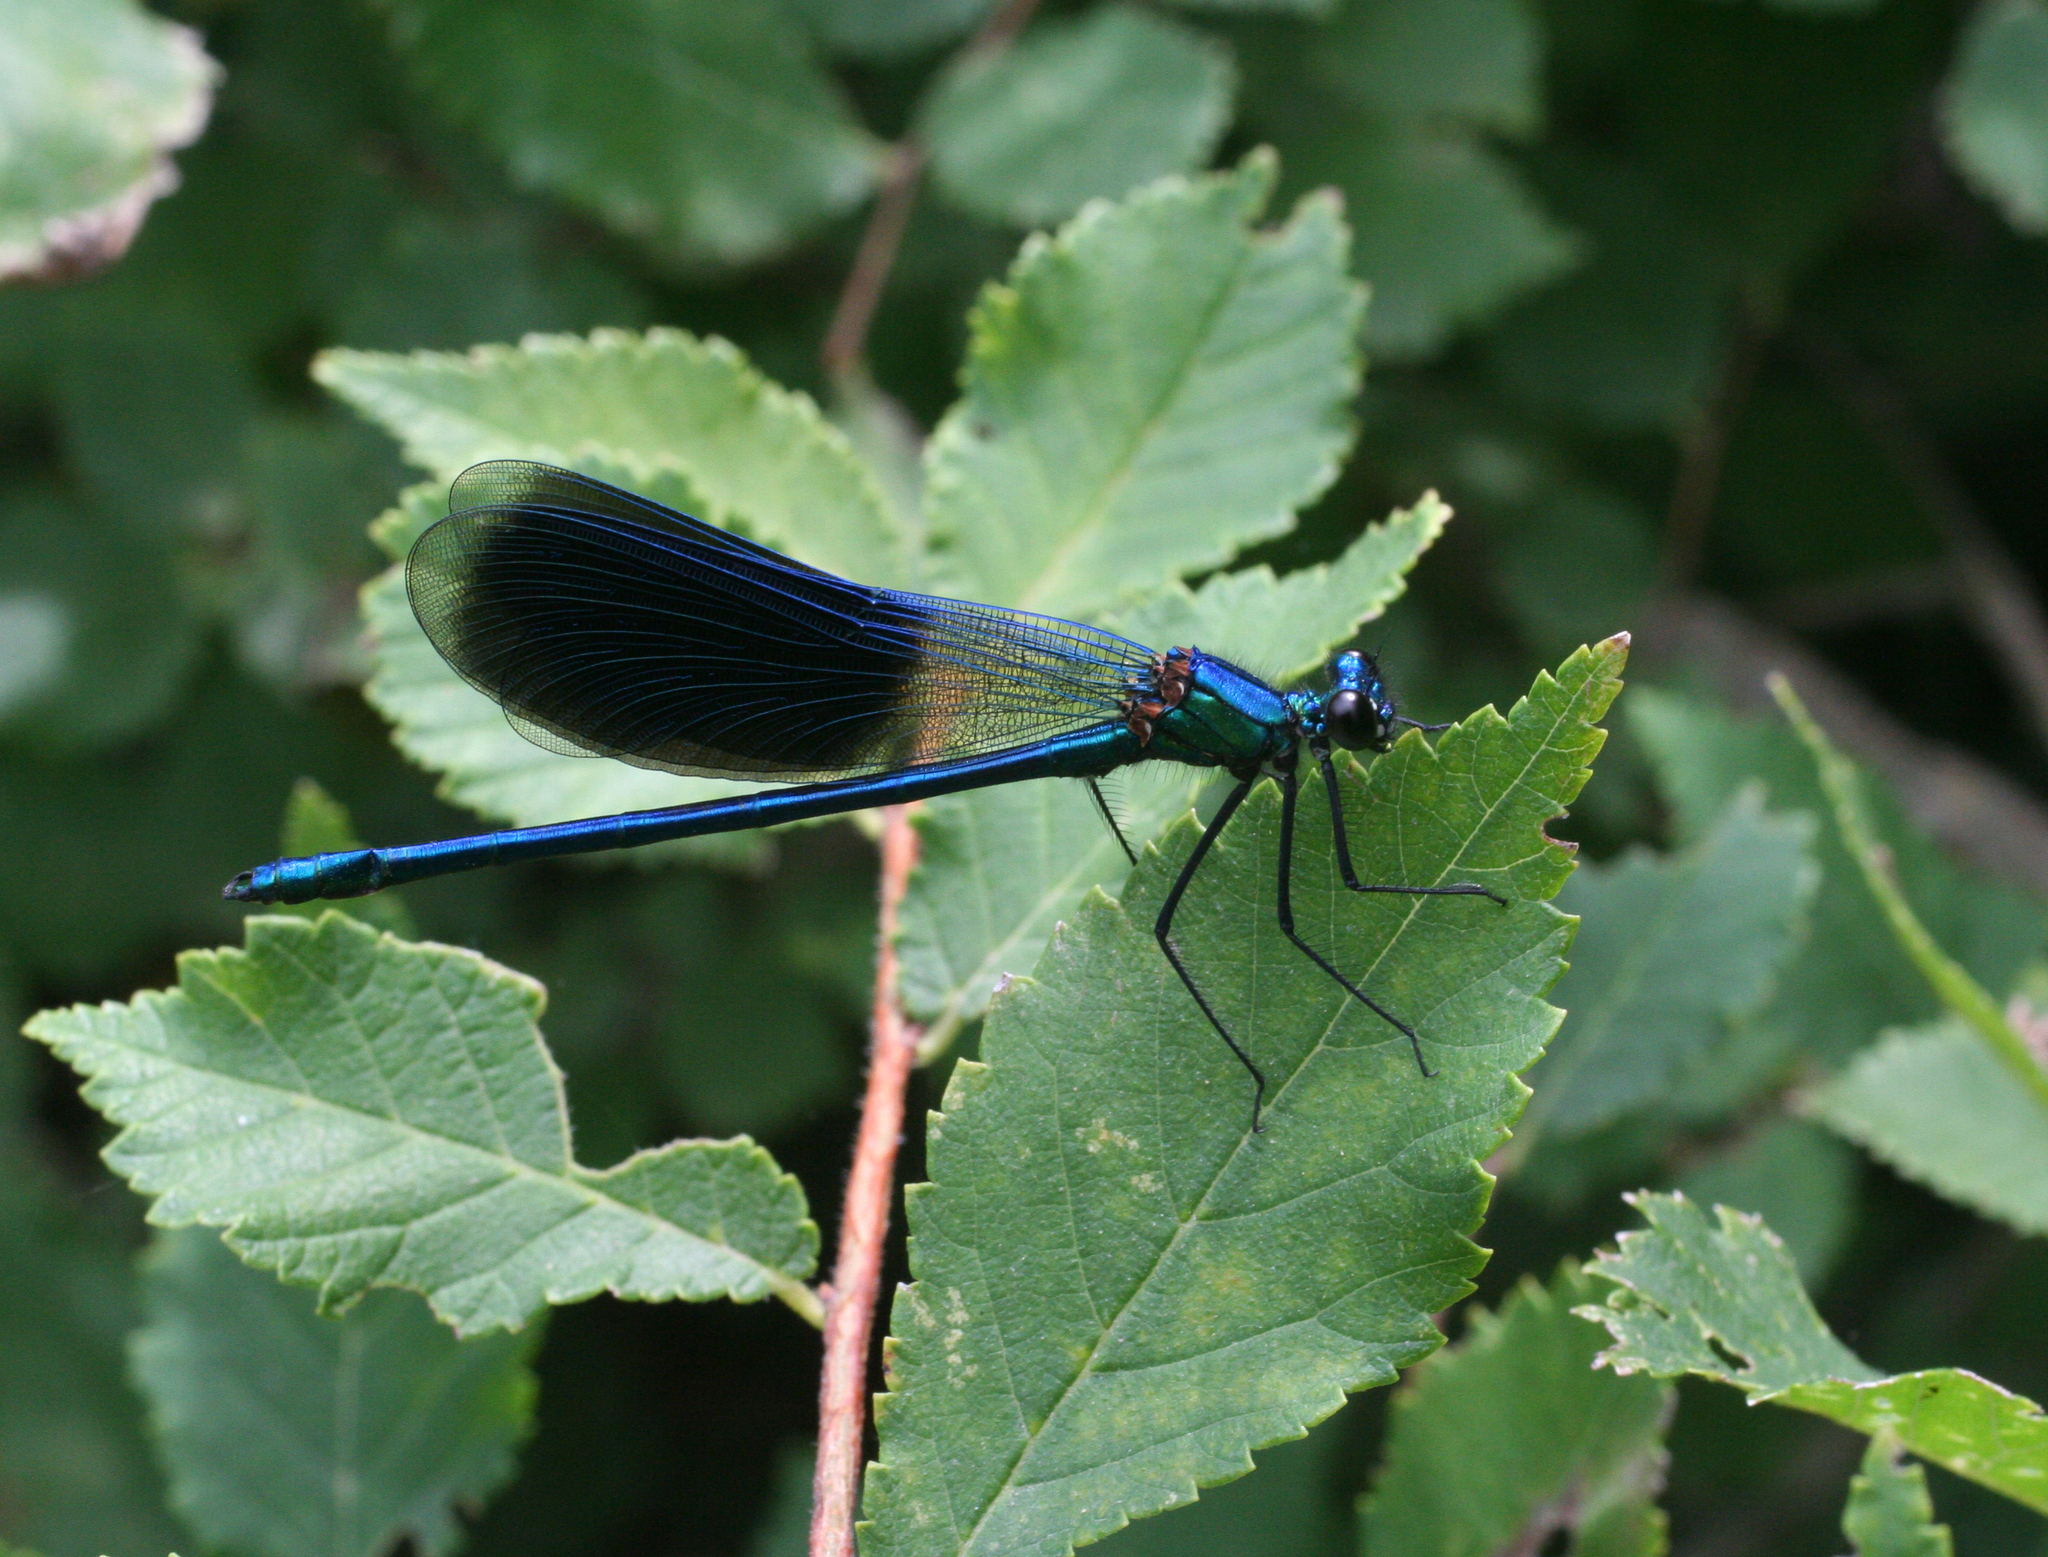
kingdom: Animalia
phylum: Arthropoda
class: Insecta
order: Odonata
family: Calopterygidae
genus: Calopteryx
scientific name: Calopteryx splendens
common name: Banded demoiselle
